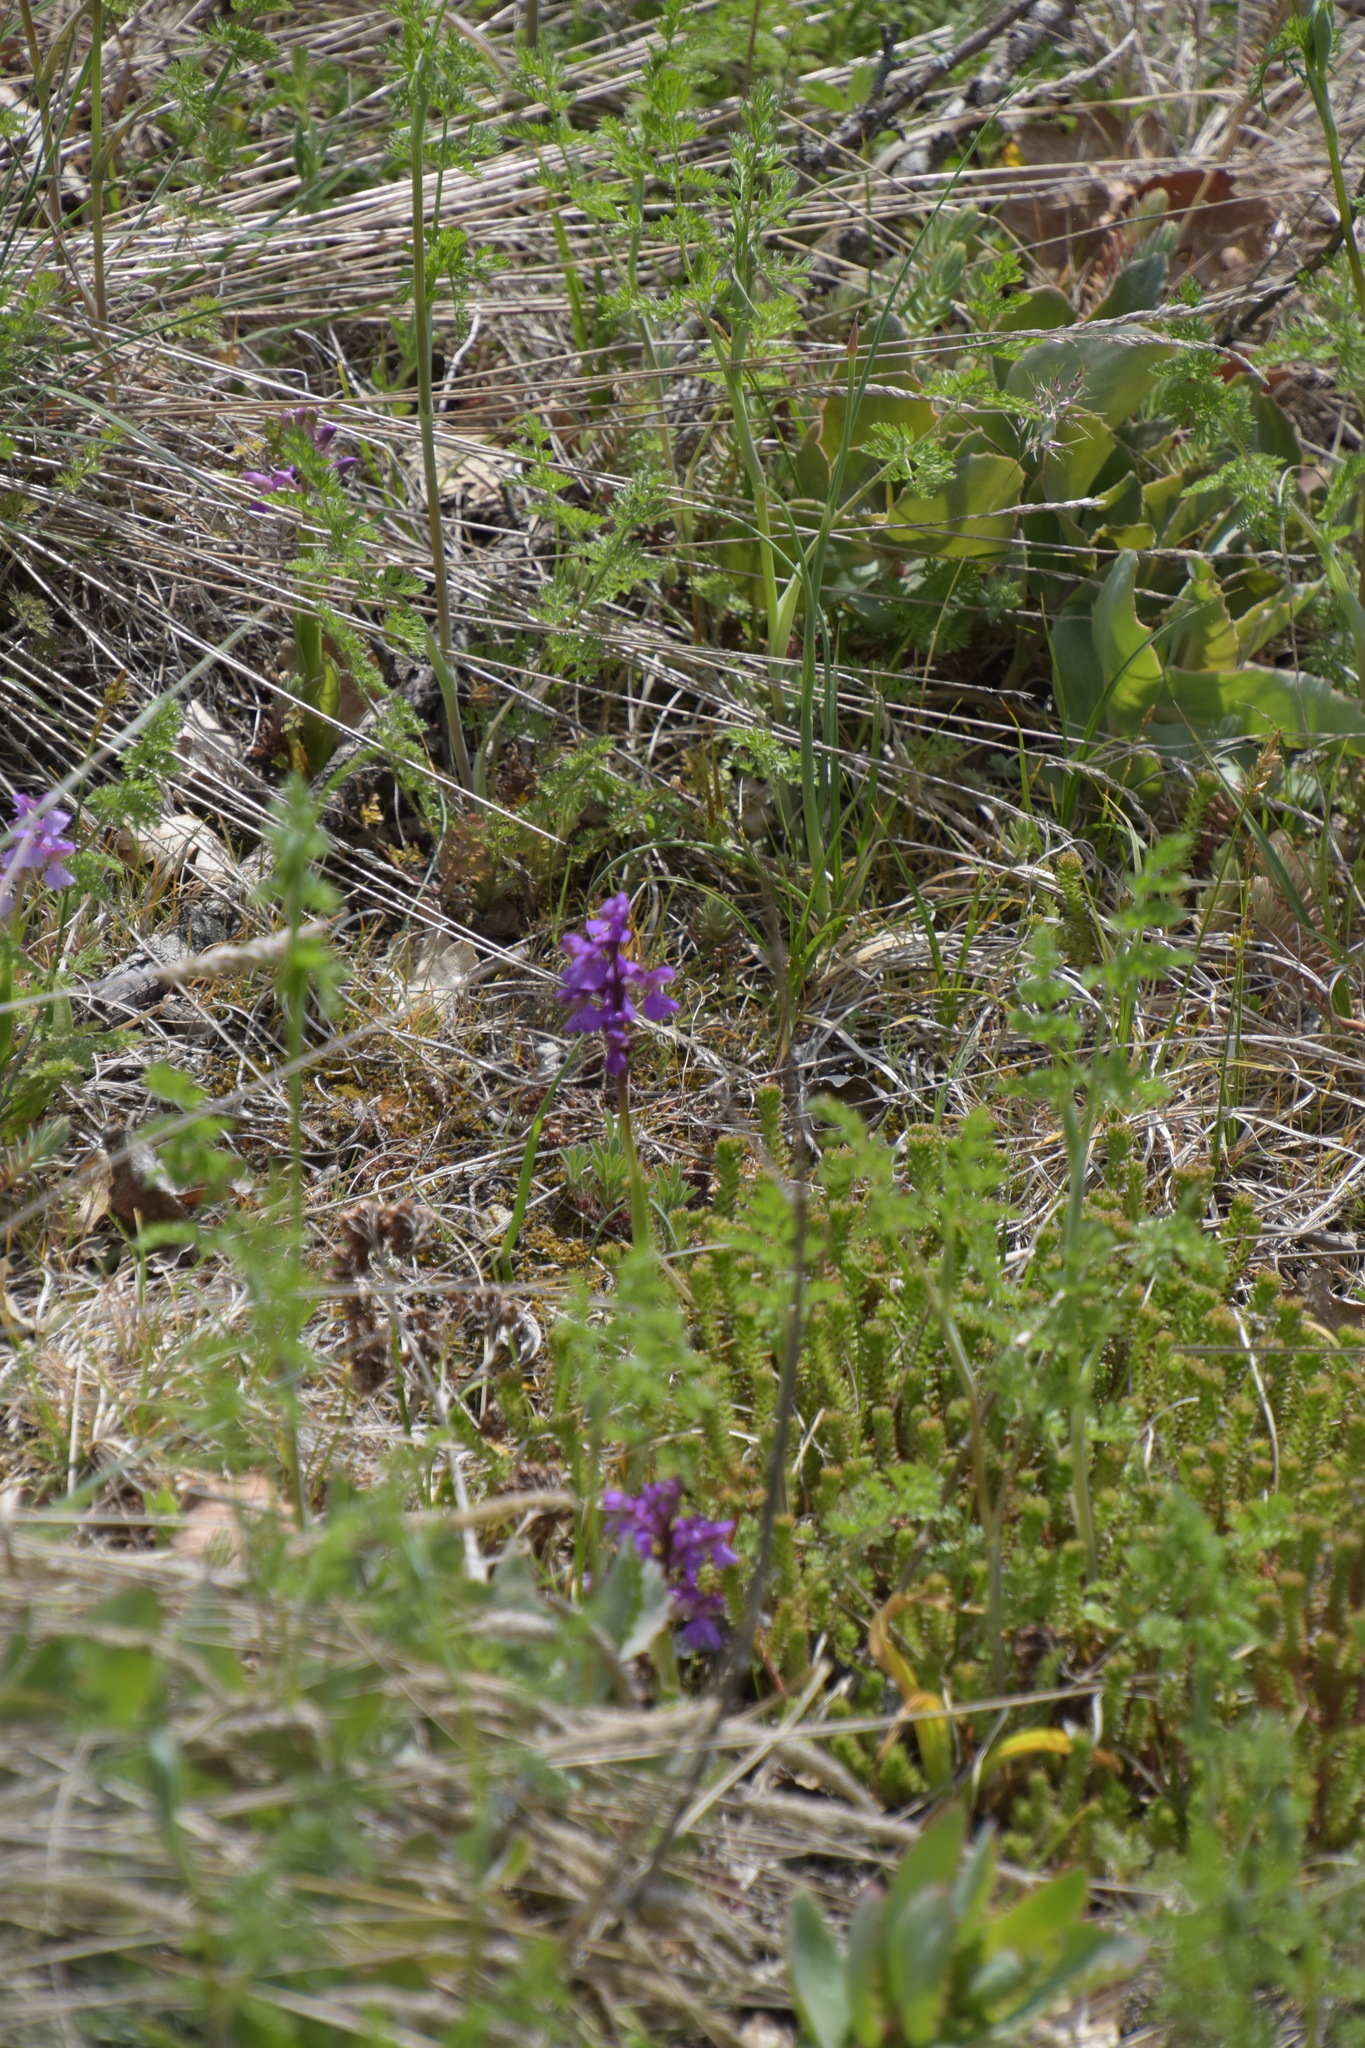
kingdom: Plantae
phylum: Tracheophyta
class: Liliopsida
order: Asparagales
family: Orchidaceae
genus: Anacamptis
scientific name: Anacamptis morio
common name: Green-winged orchid
